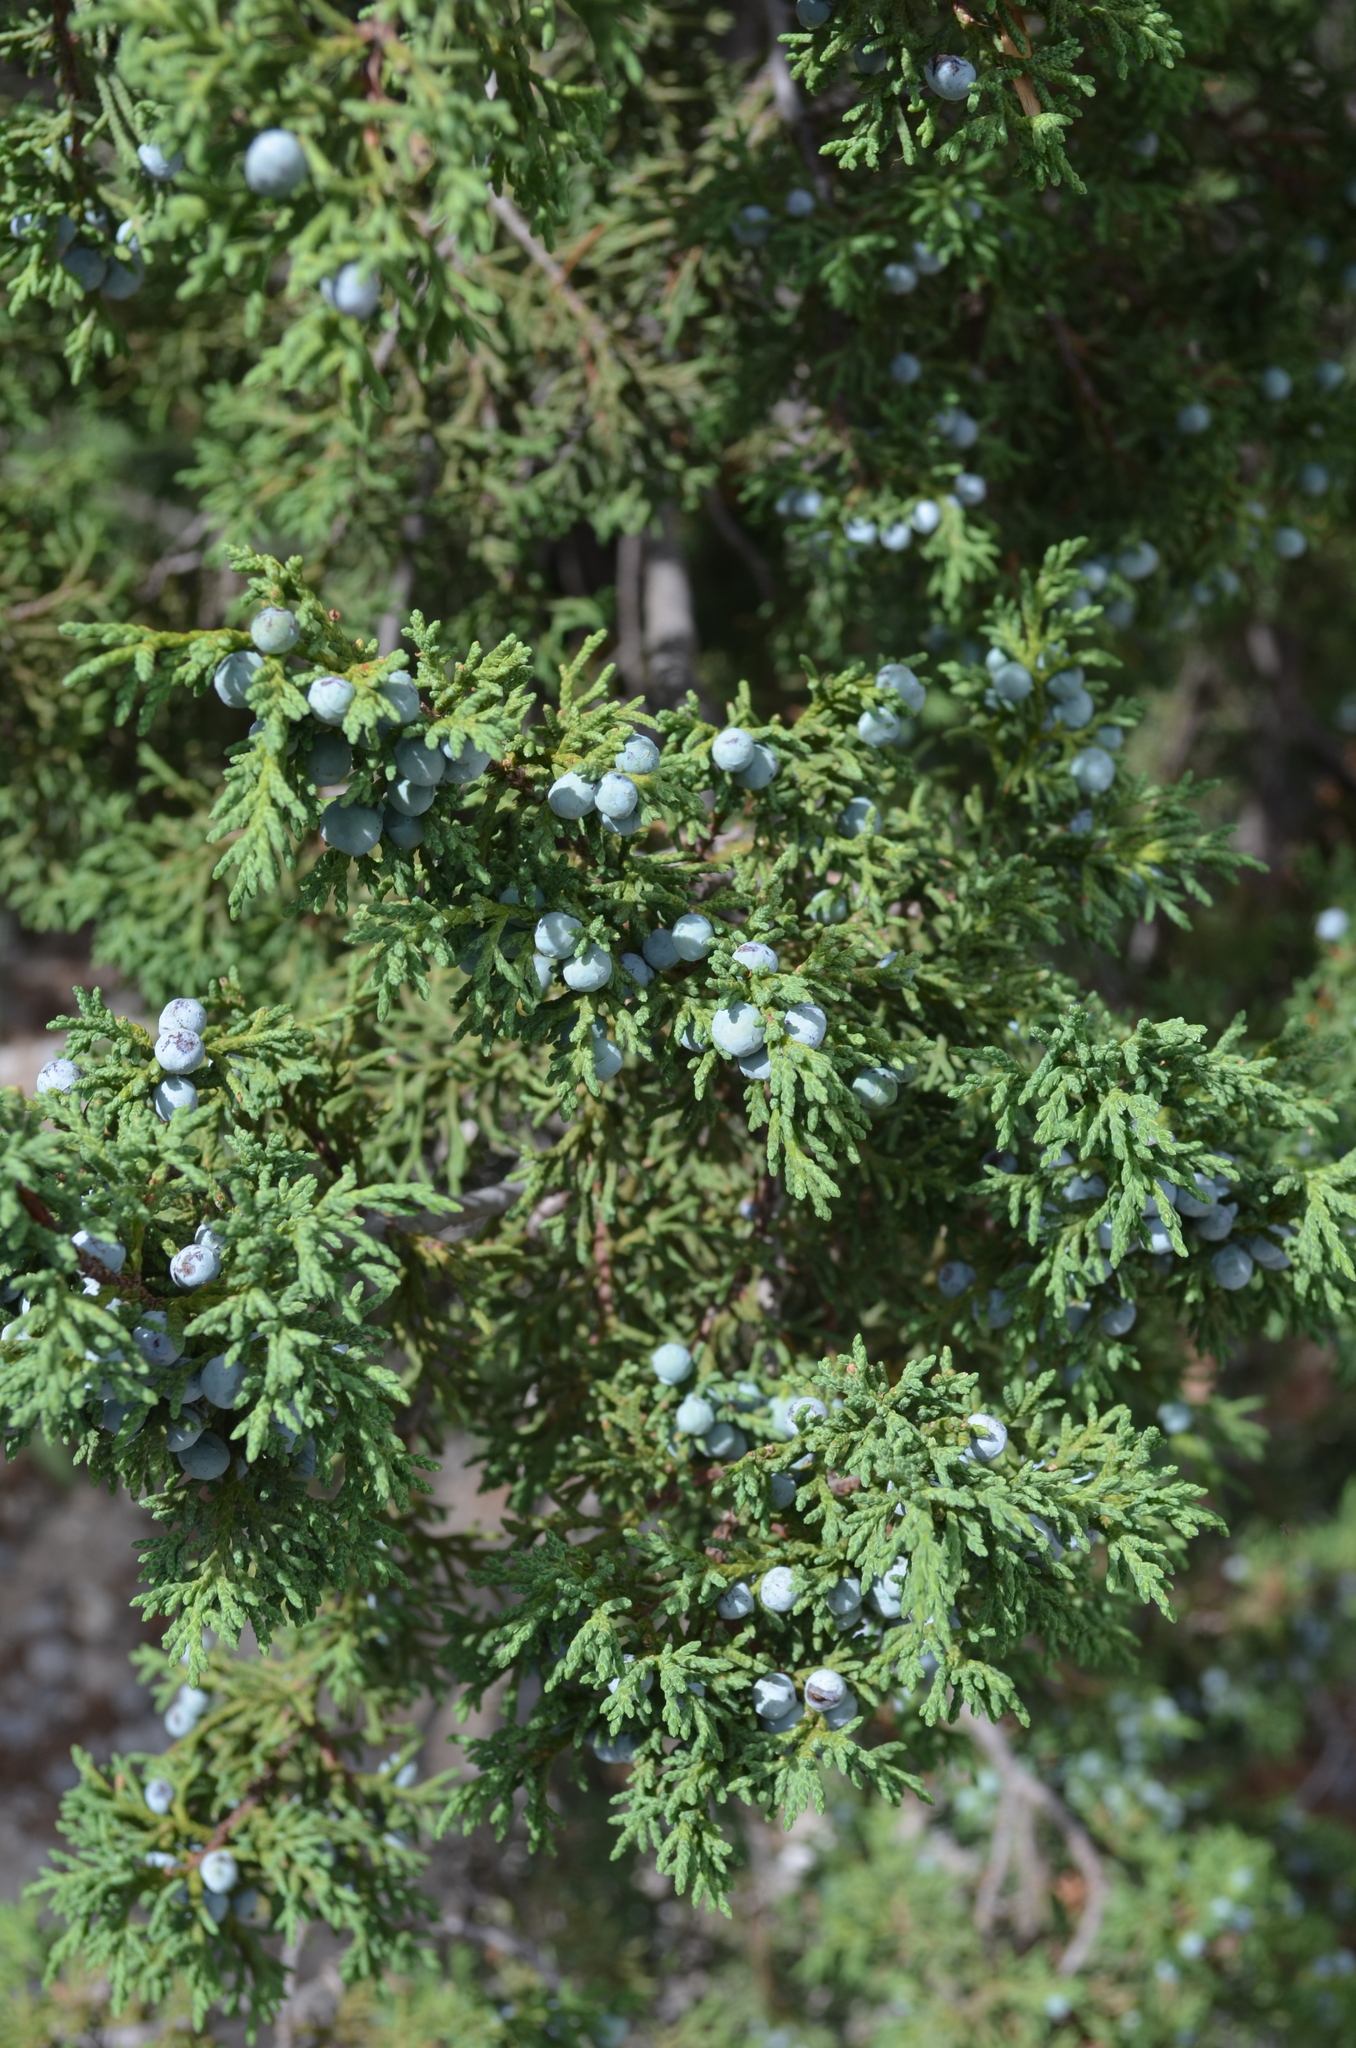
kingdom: Plantae
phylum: Tracheophyta
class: Pinopsida
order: Pinales
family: Cupressaceae
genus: Juniperus
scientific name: Juniperus deppeana
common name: Alligator juniper
